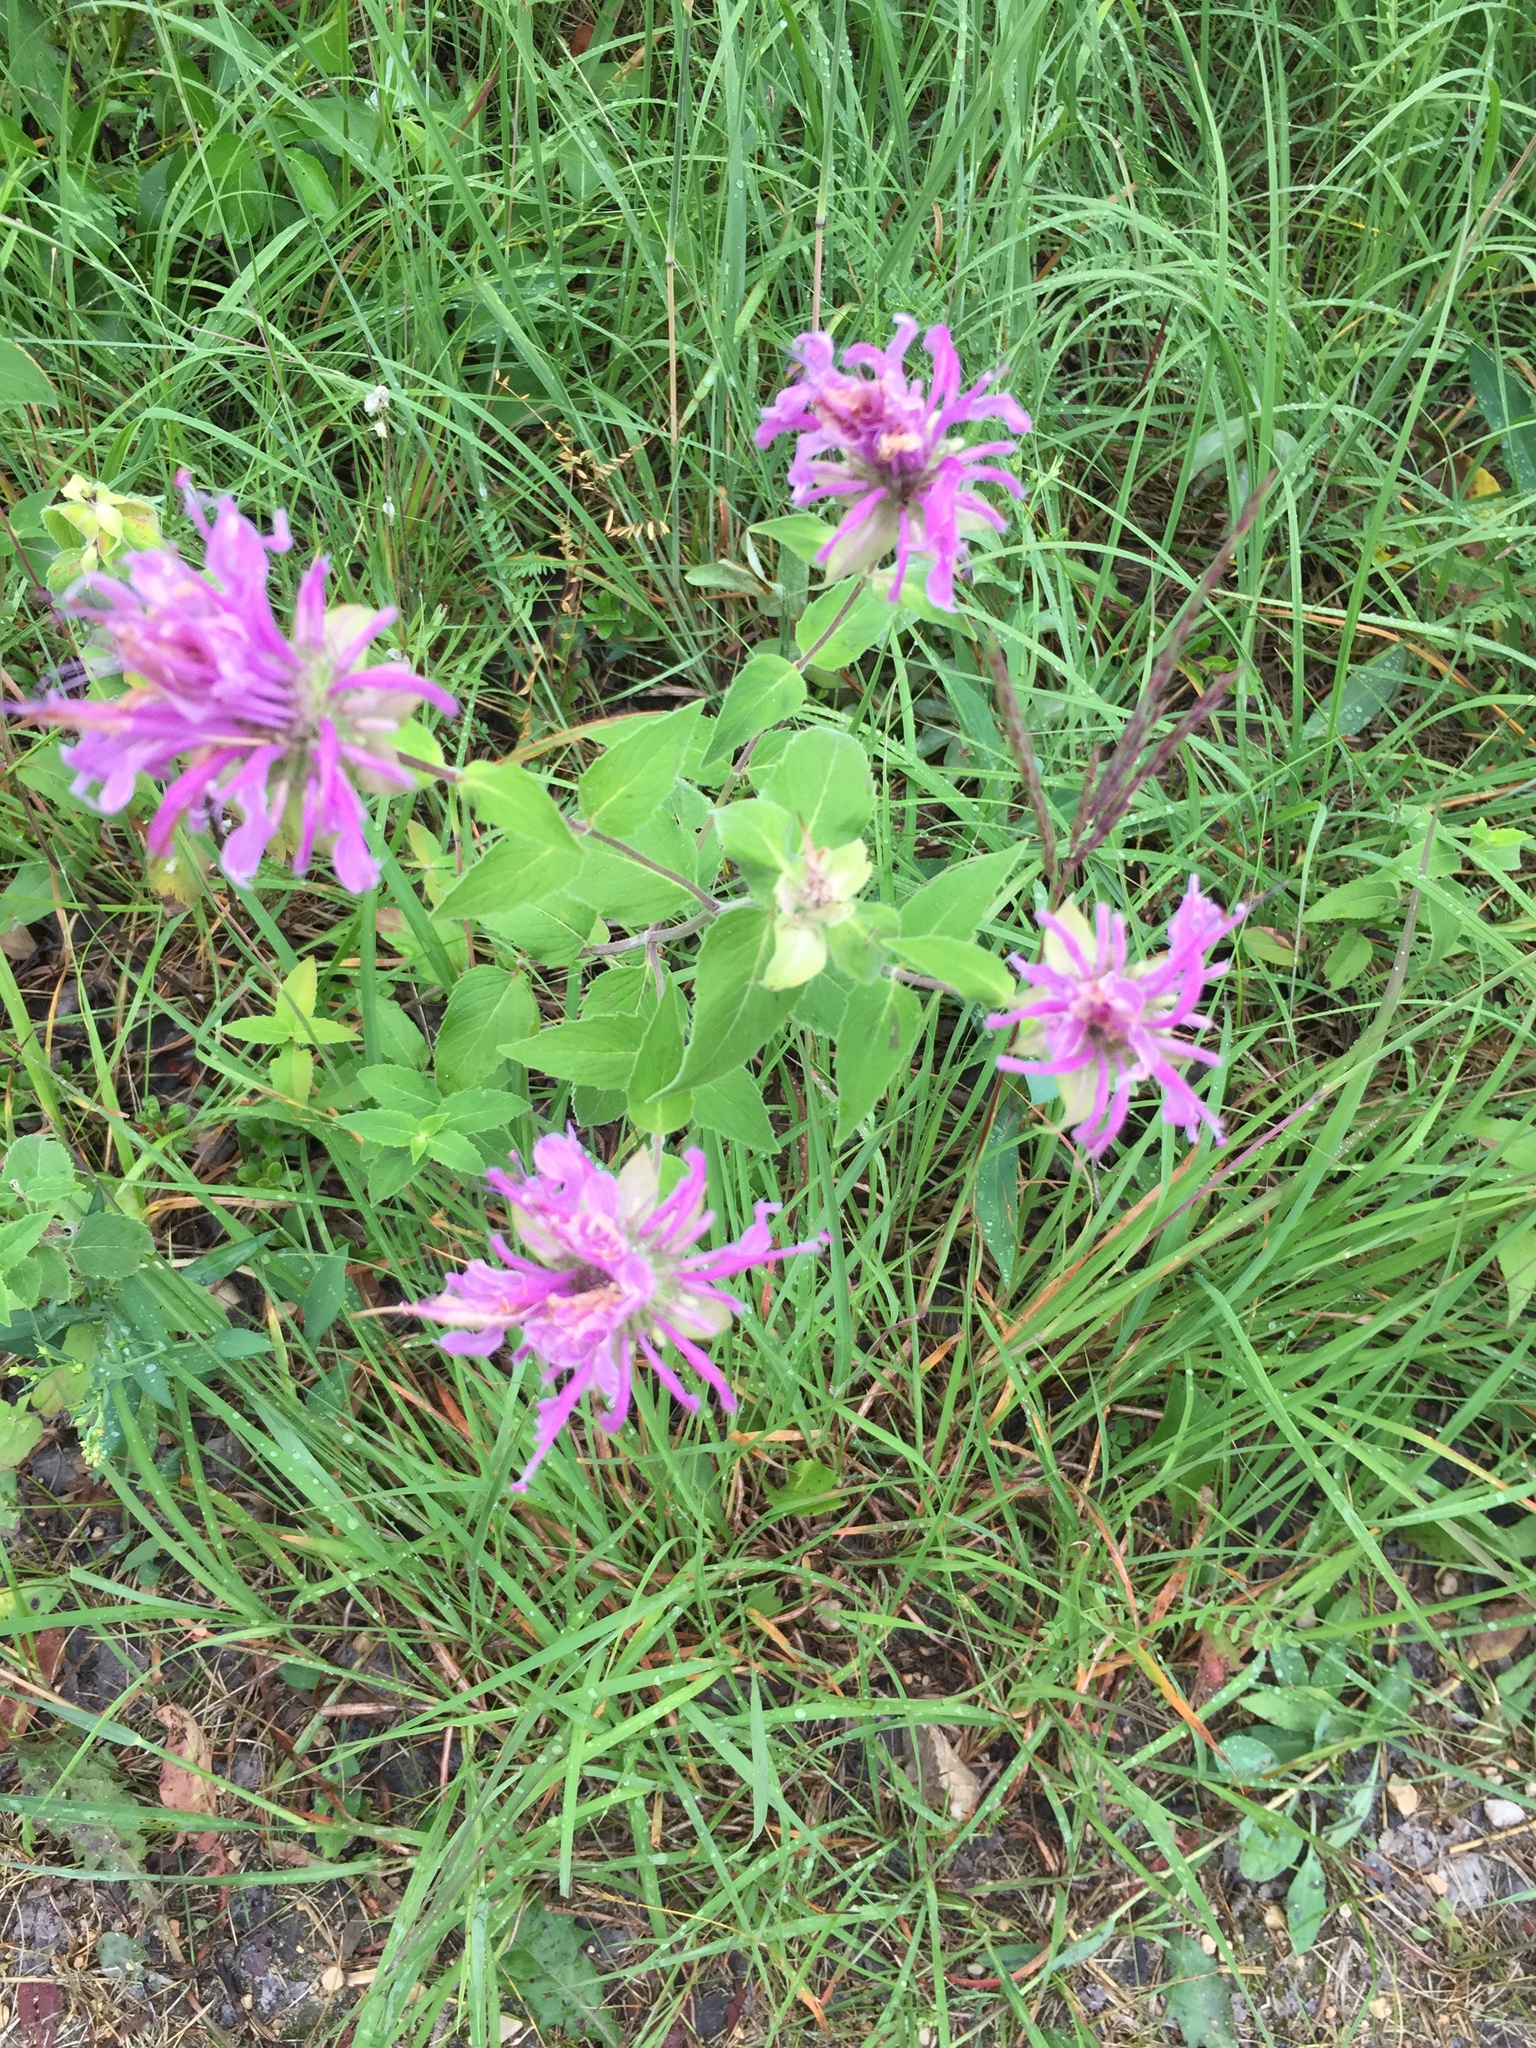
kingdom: Plantae
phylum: Tracheophyta
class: Magnoliopsida
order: Lamiales
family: Lamiaceae
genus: Monarda
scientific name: Monarda fistulosa
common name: Purple beebalm
